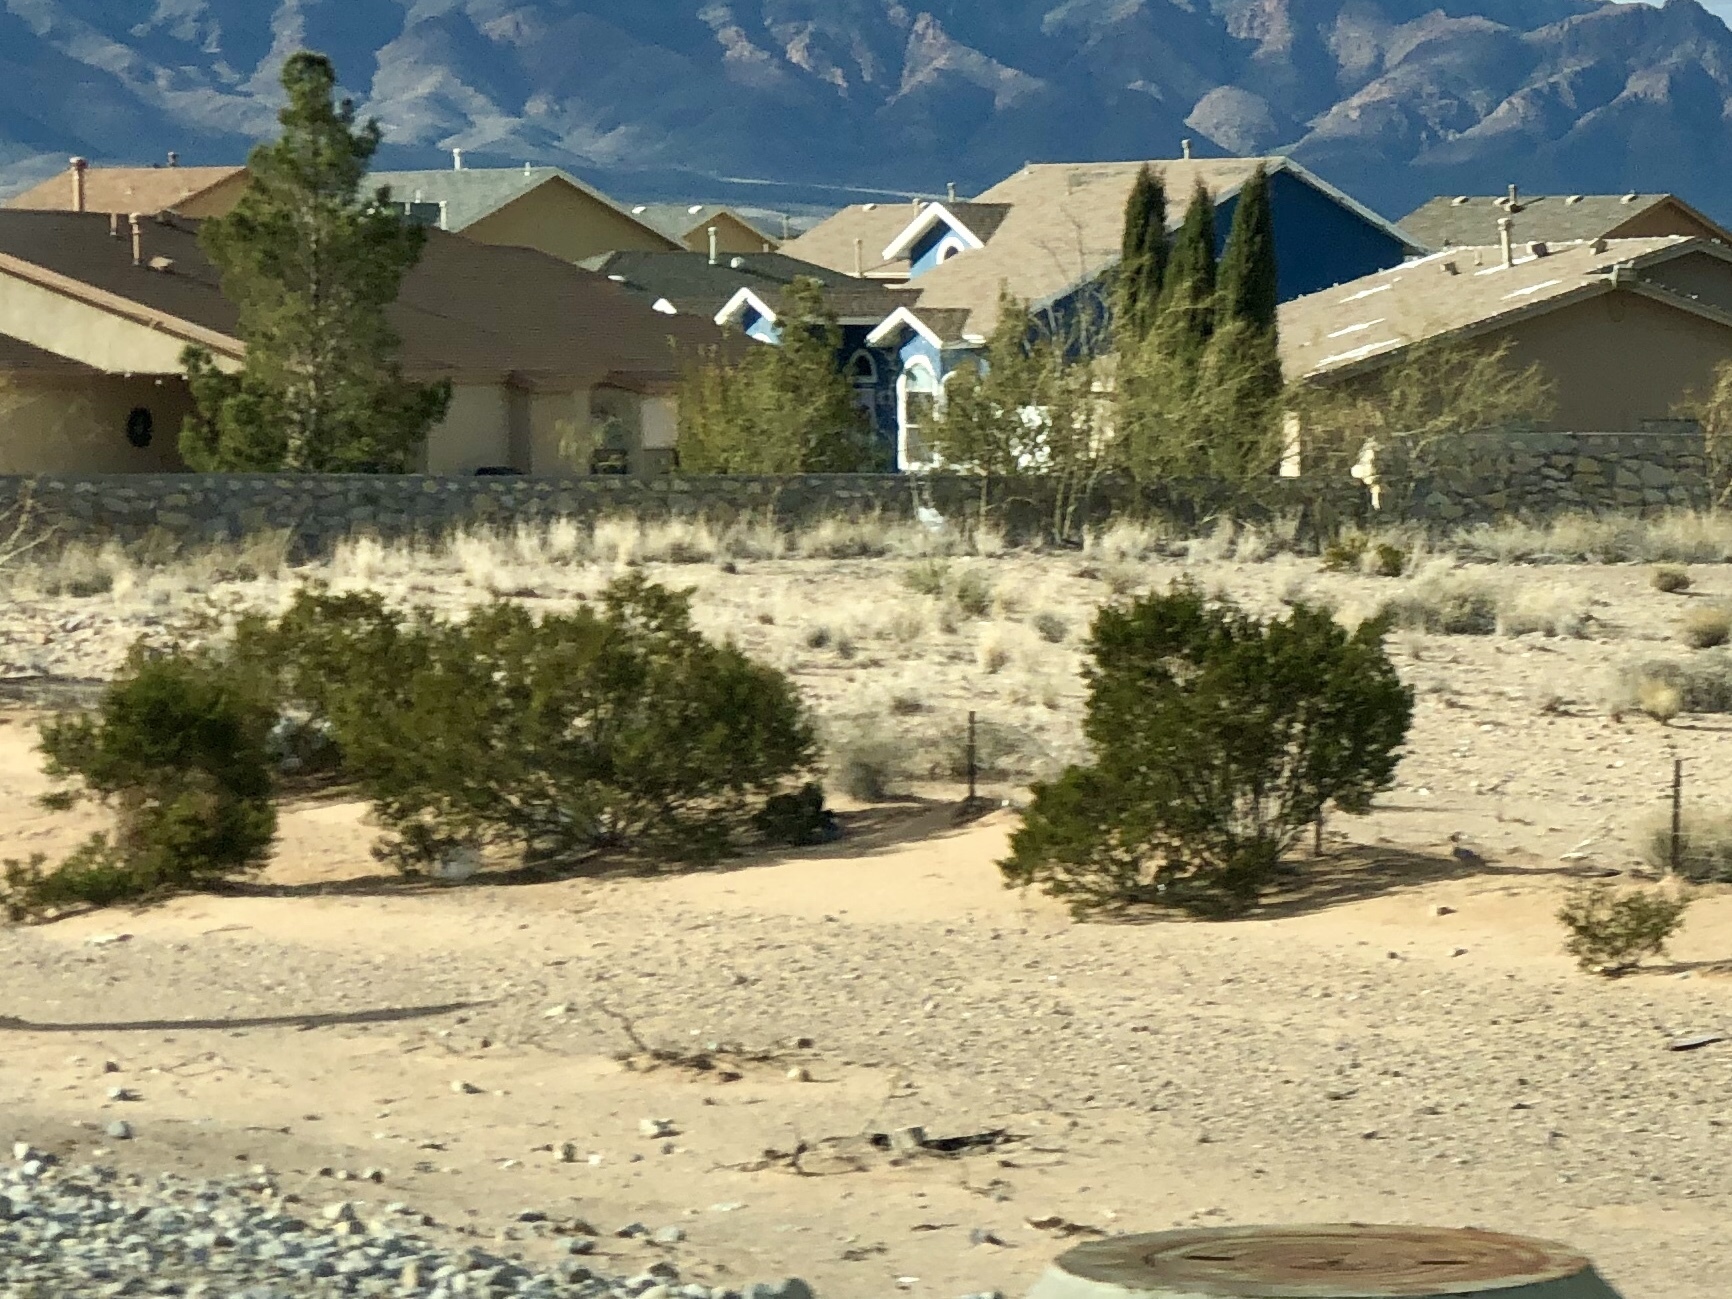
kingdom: Plantae
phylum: Tracheophyta
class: Magnoliopsida
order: Zygophyllales
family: Zygophyllaceae
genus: Larrea
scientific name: Larrea tridentata
